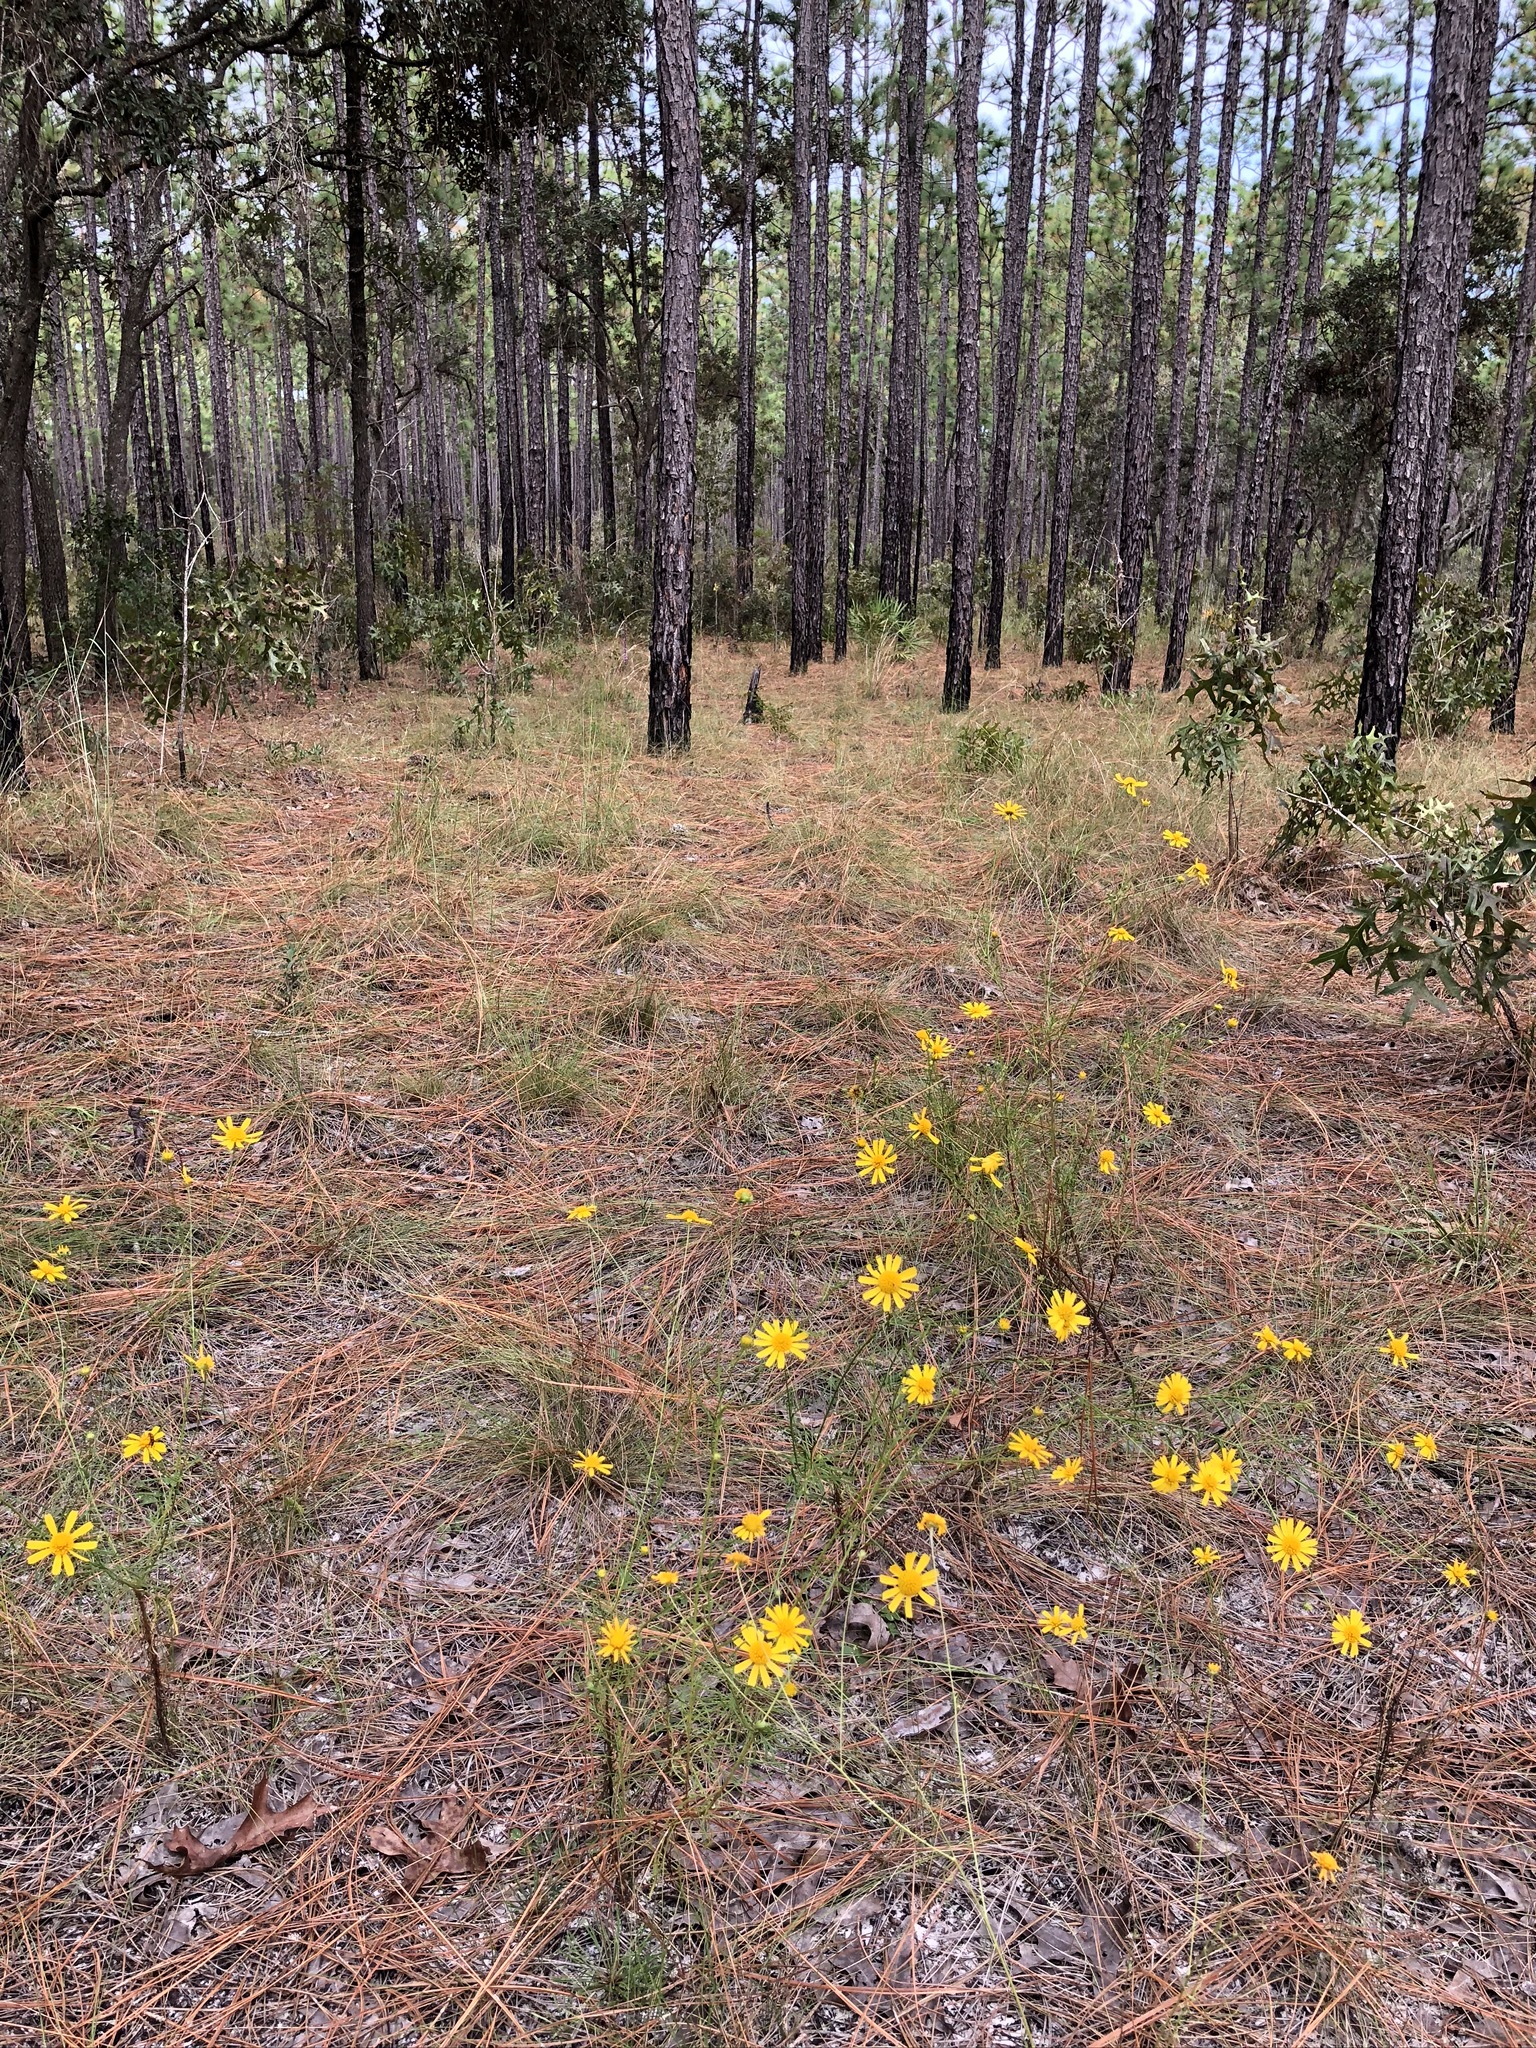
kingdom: Plantae
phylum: Tracheophyta
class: Magnoliopsida
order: Asterales
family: Asteraceae
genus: Balduina
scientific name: Balduina angustifolia
